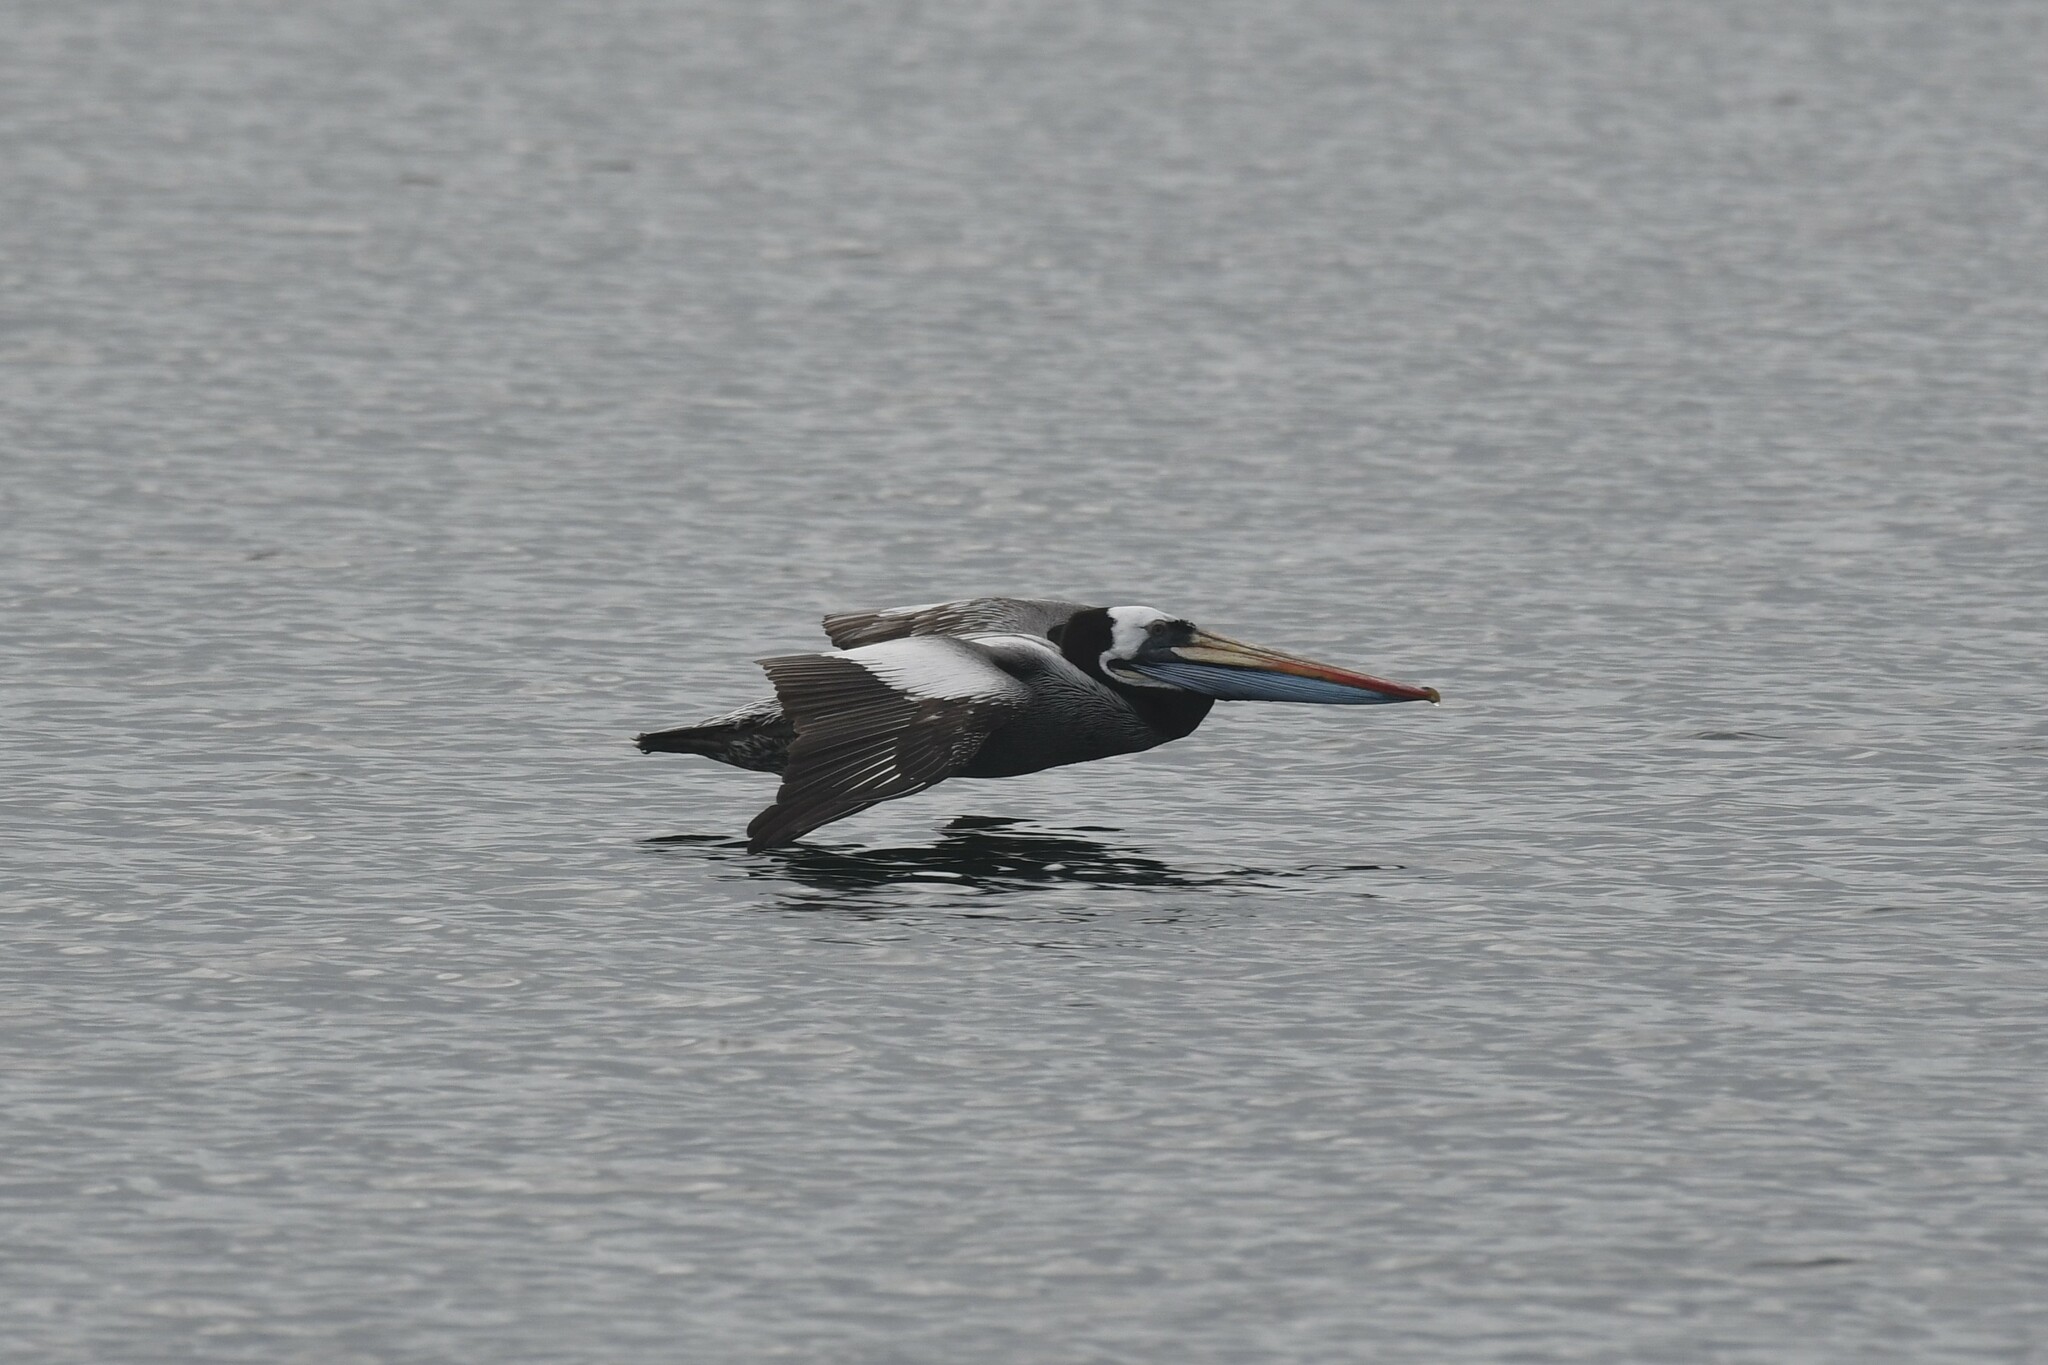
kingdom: Animalia
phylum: Chordata
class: Aves
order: Pelecaniformes
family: Pelecanidae
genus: Pelecanus
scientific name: Pelecanus thagus
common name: Peruvian pelican
